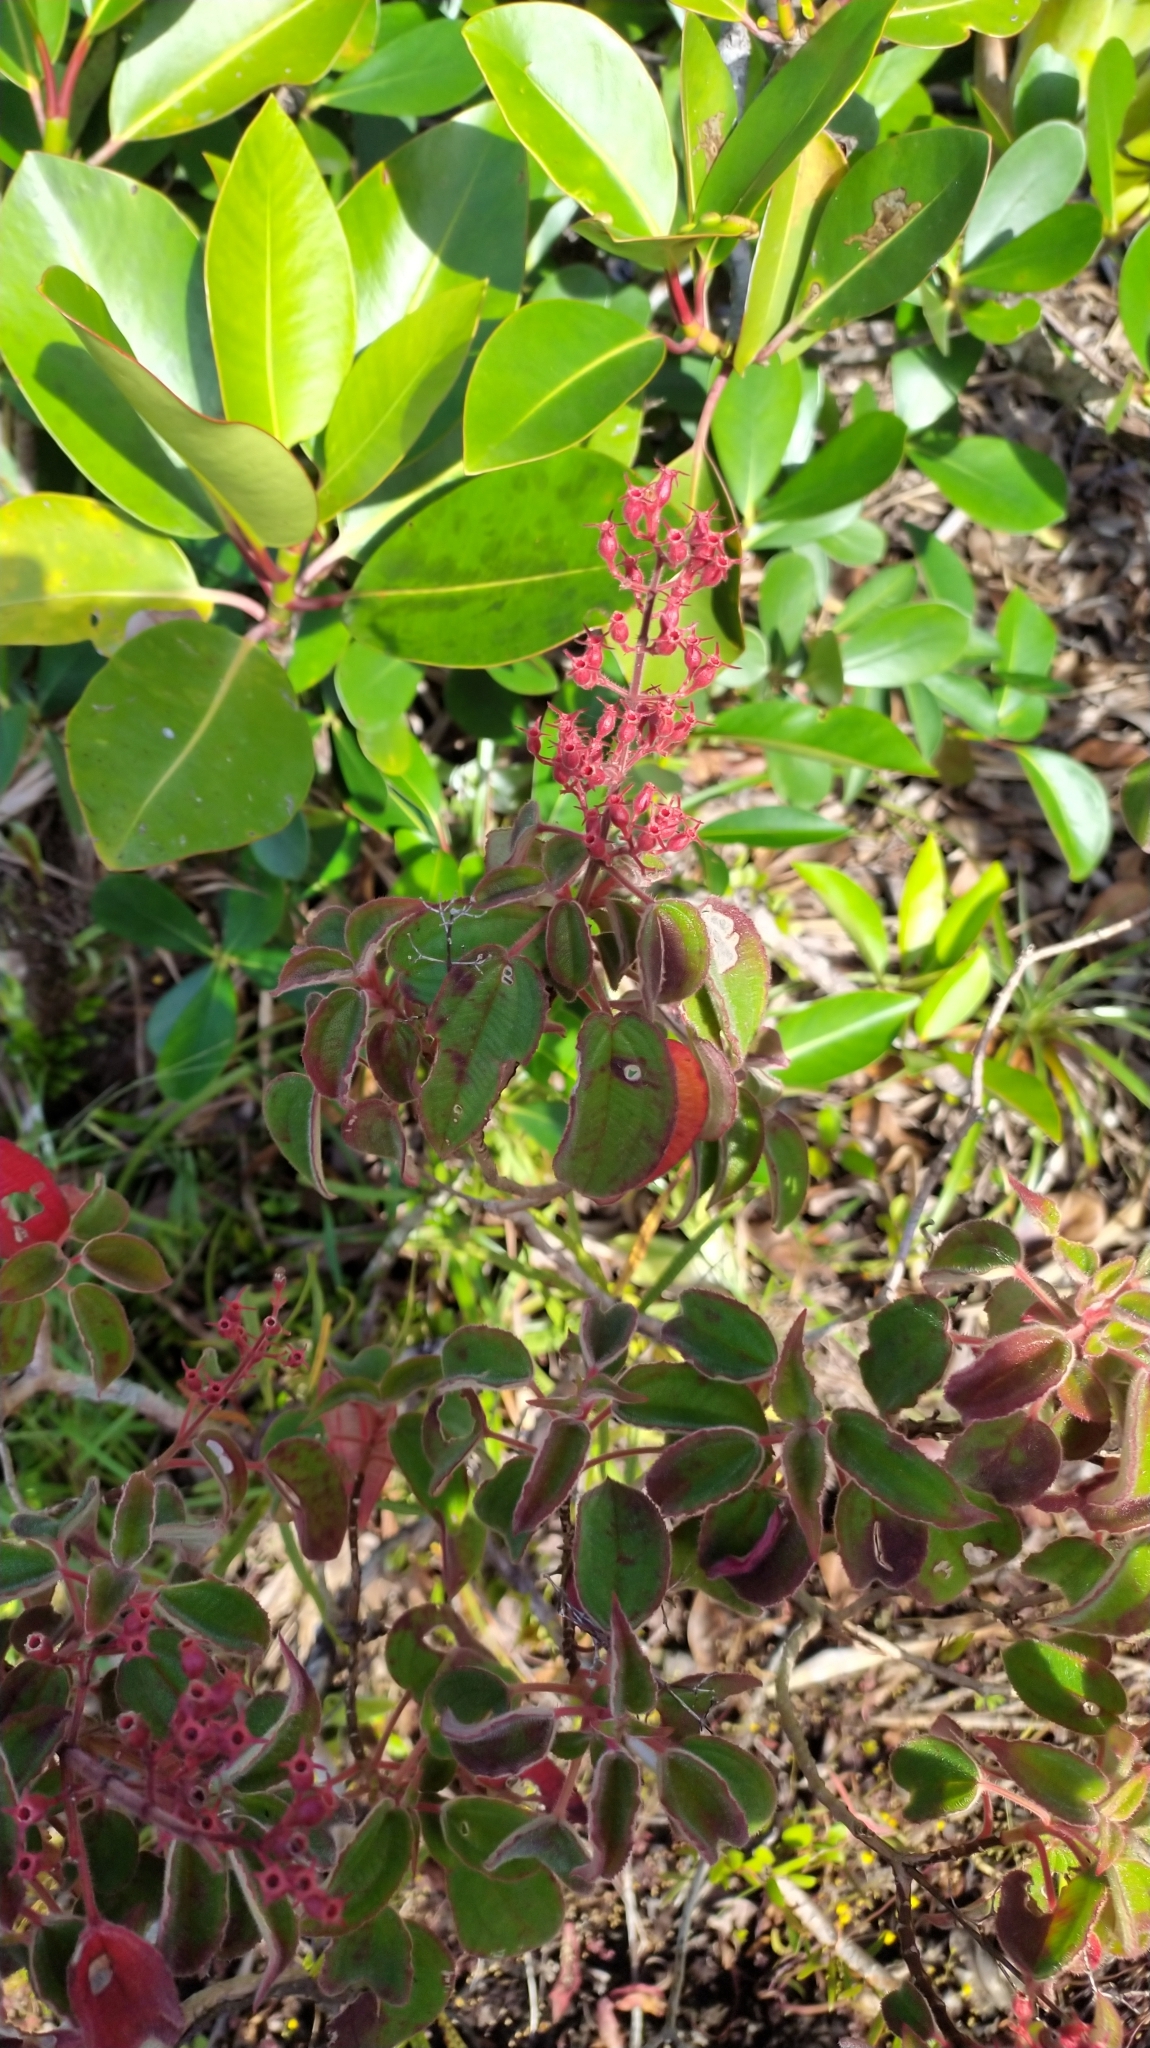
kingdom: Plantae
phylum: Tracheophyta
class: Magnoliopsida
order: Myrtales
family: Melastomataceae
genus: Ernestia
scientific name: Ernestia granvillei
